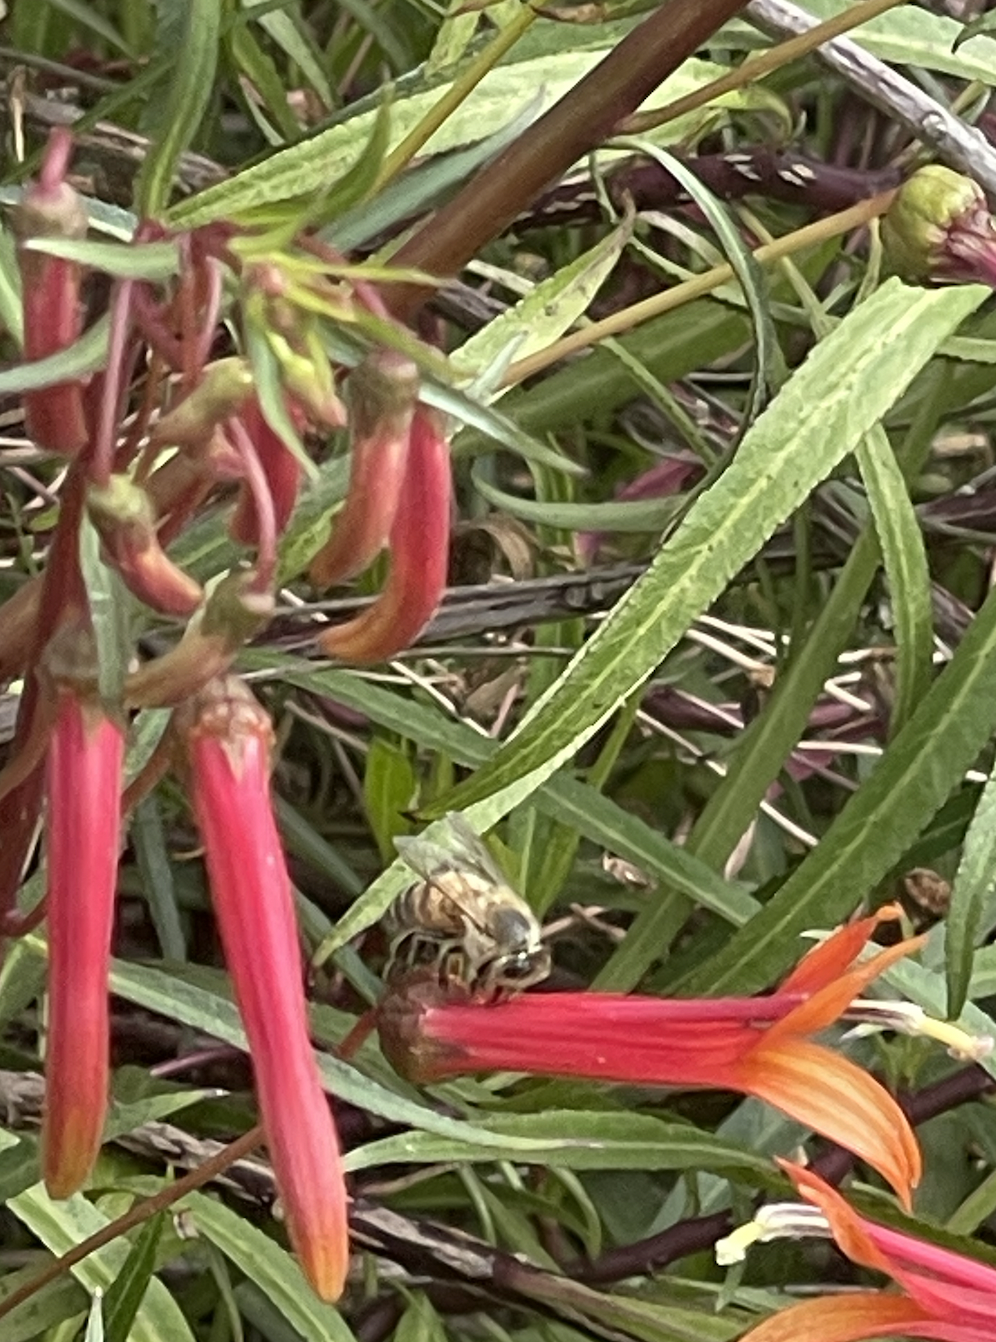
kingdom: Animalia
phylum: Arthropoda
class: Insecta
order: Hymenoptera
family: Apidae
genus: Apis
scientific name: Apis mellifera
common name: Honey bee
